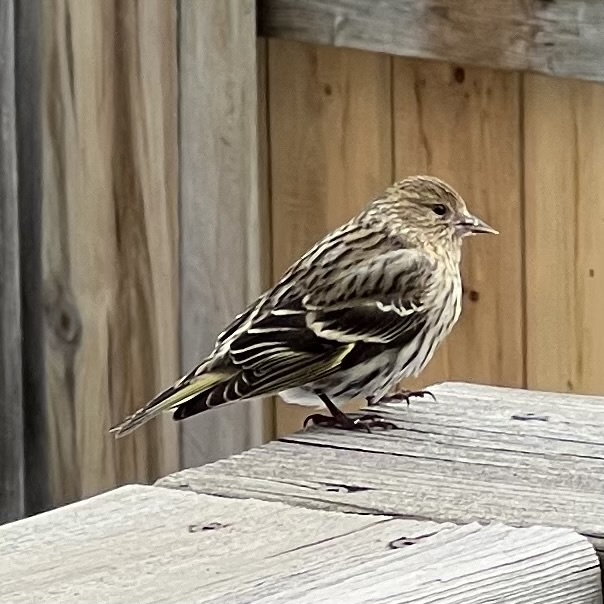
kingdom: Animalia
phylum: Chordata
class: Aves
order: Passeriformes
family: Fringillidae
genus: Spinus
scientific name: Spinus pinus
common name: Pine siskin
